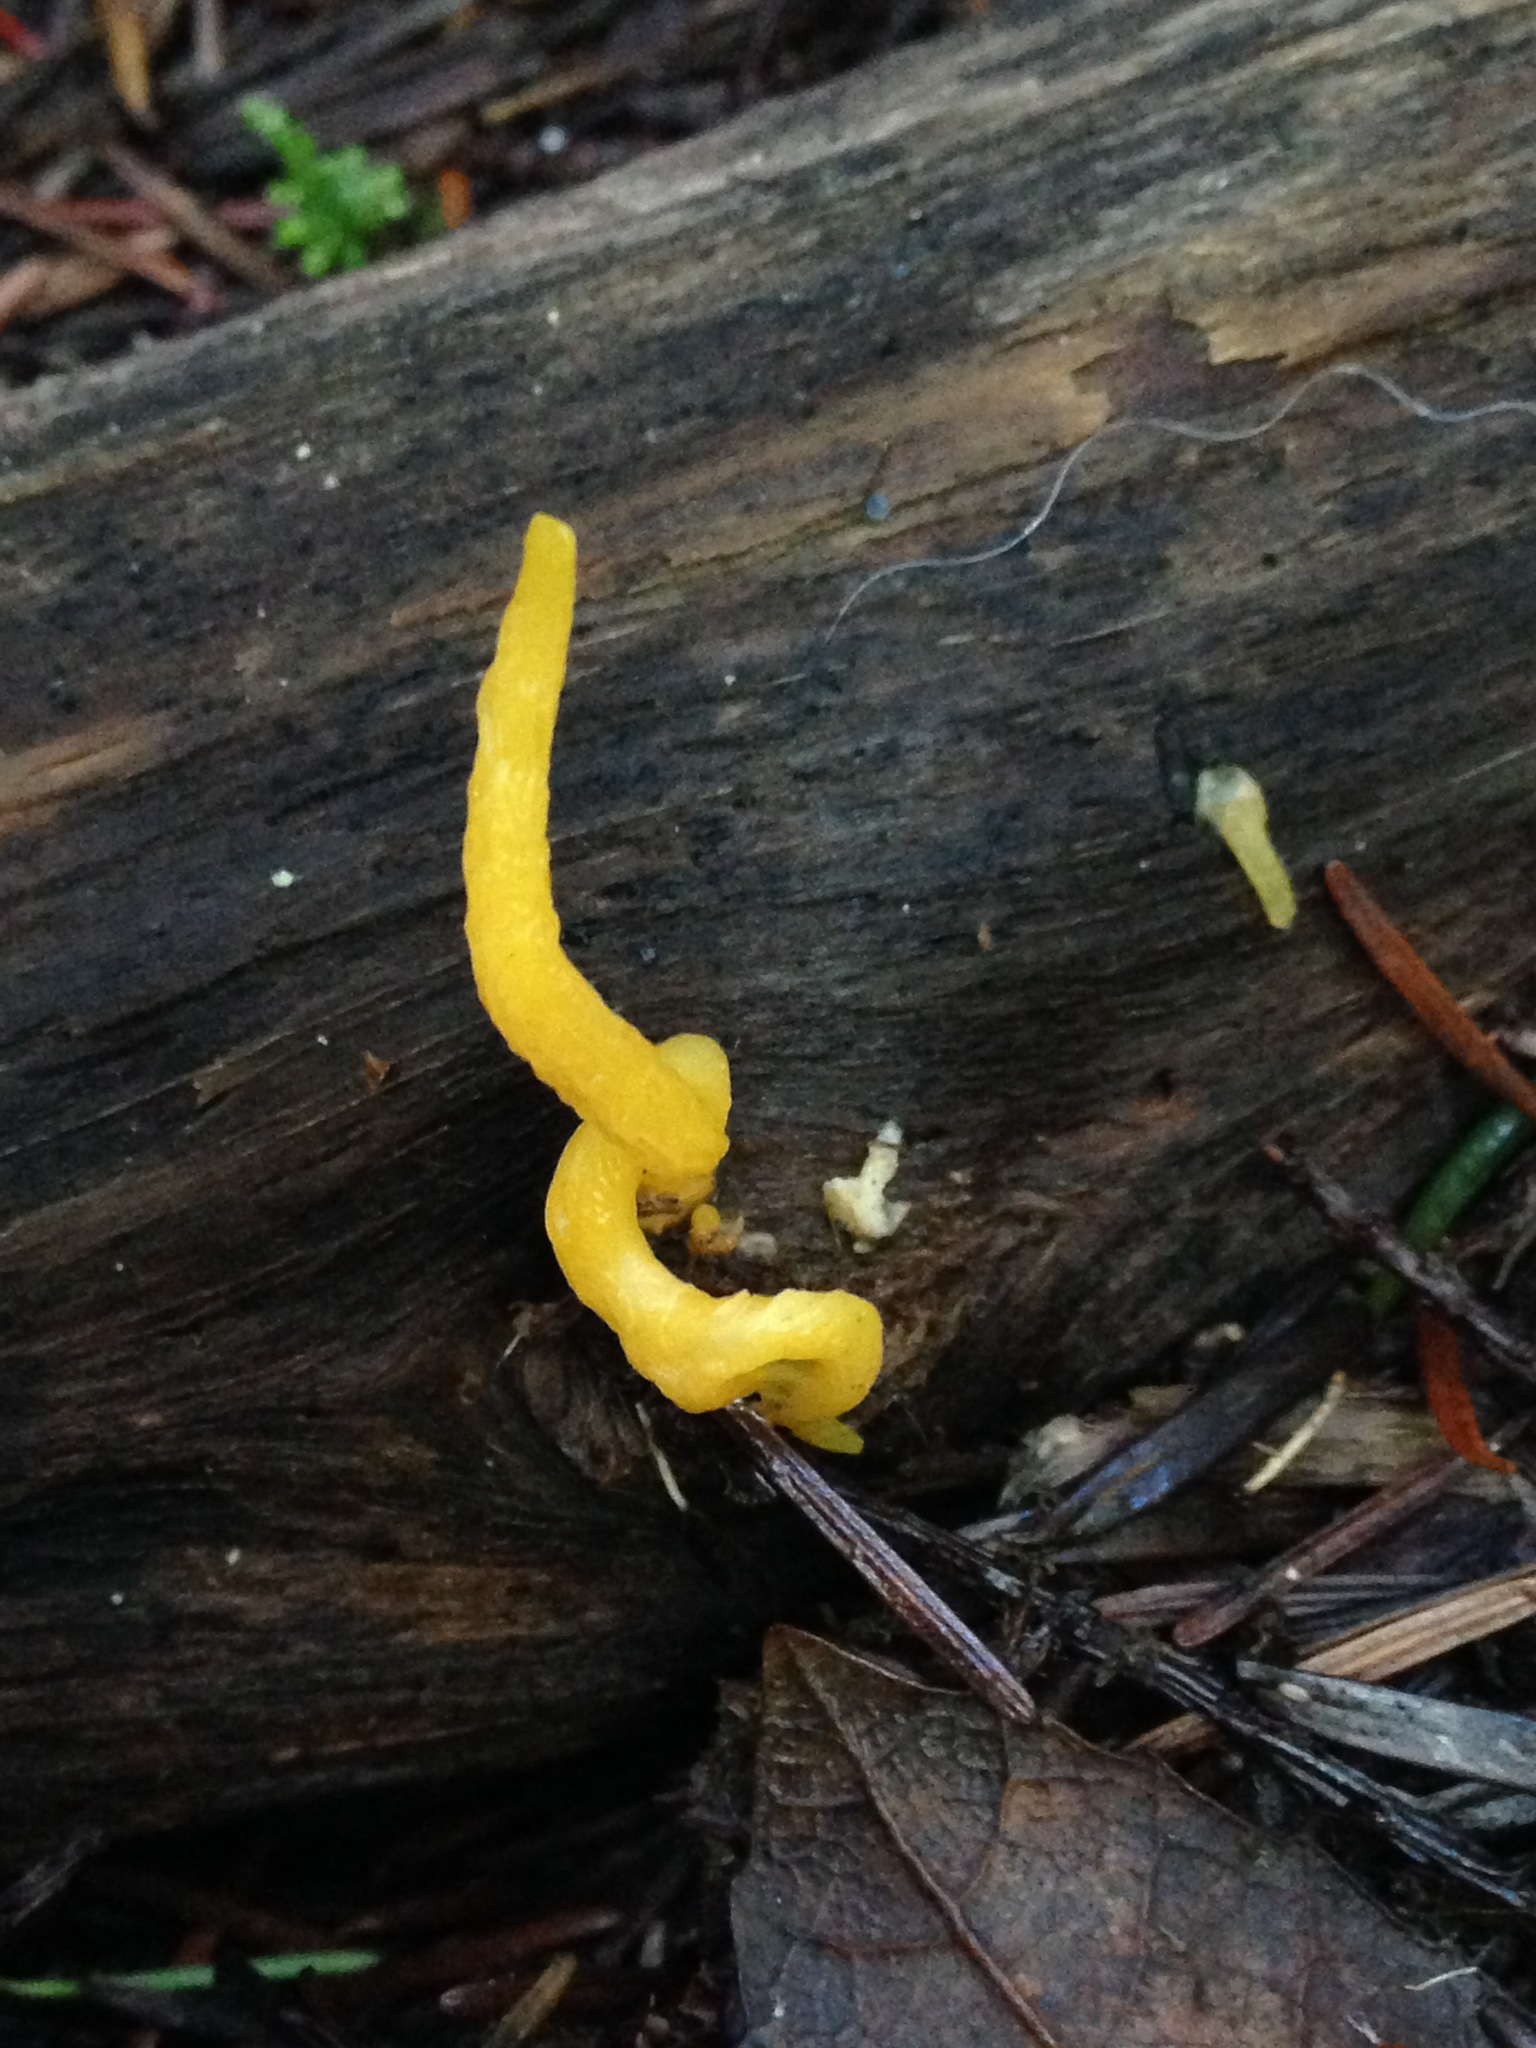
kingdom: Fungi
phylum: Basidiomycota
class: Dacrymycetes
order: Dacrymycetales
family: Dacrymycetaceae
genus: Calocera
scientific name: Calocera cornea
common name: Small stagshorn
